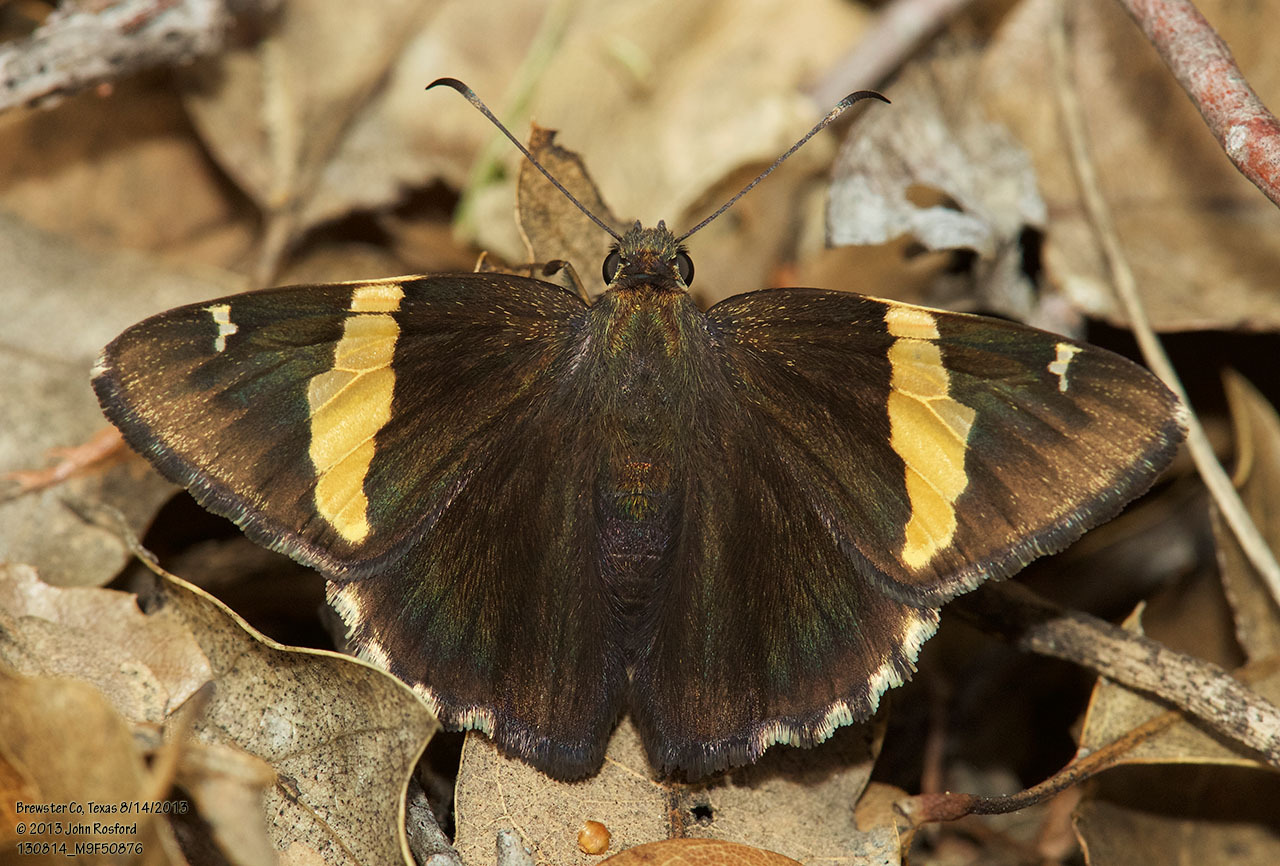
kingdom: Animalia
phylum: Arthropoda
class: Arachnida
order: Scorpiones
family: Bothriuridae
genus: Telegonus
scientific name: Telegonus cellus
